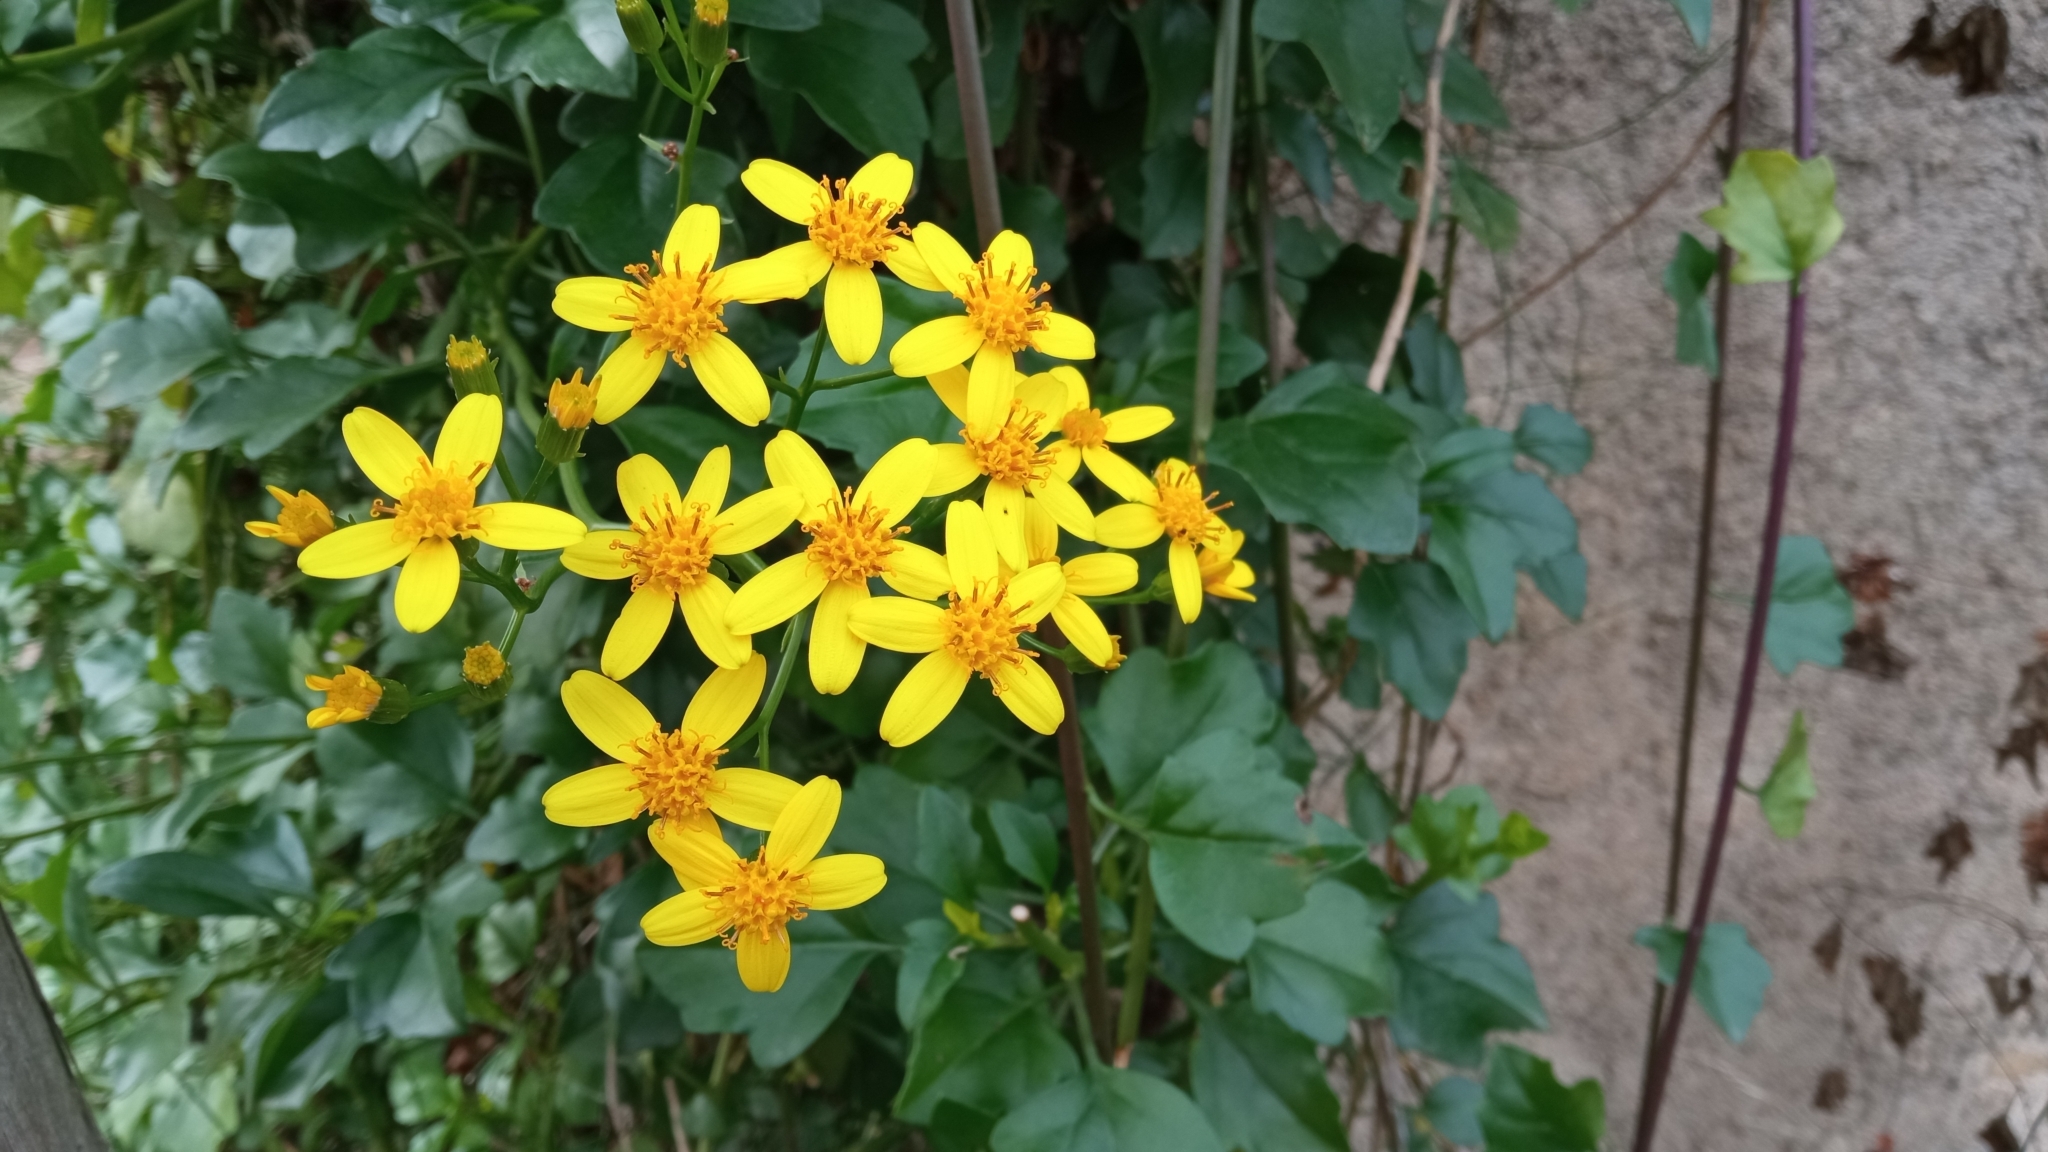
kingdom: Plantae
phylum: Tracheophyta
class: Magnoliopsida
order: Asterales
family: Asteraceae
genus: Senecio
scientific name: Senecio angulatus
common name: Climbing groundsel
